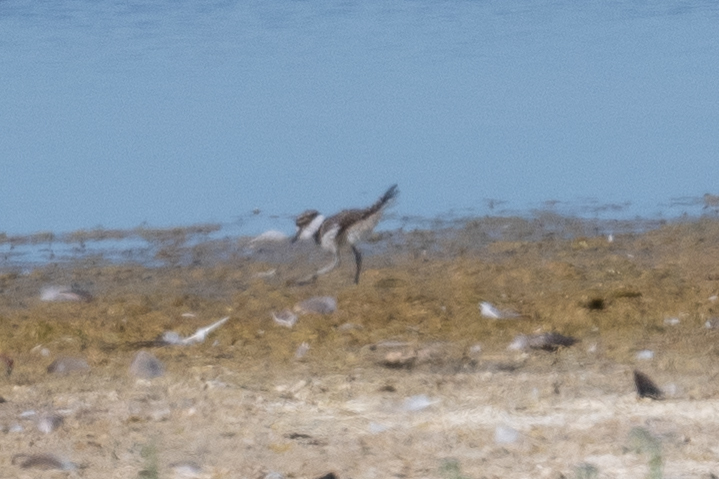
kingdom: Animalia
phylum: Chordata
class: Aves
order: Charadriiformes
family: Charadriidae
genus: Charadrius
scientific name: Charadrius vociferus
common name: Killdeer
